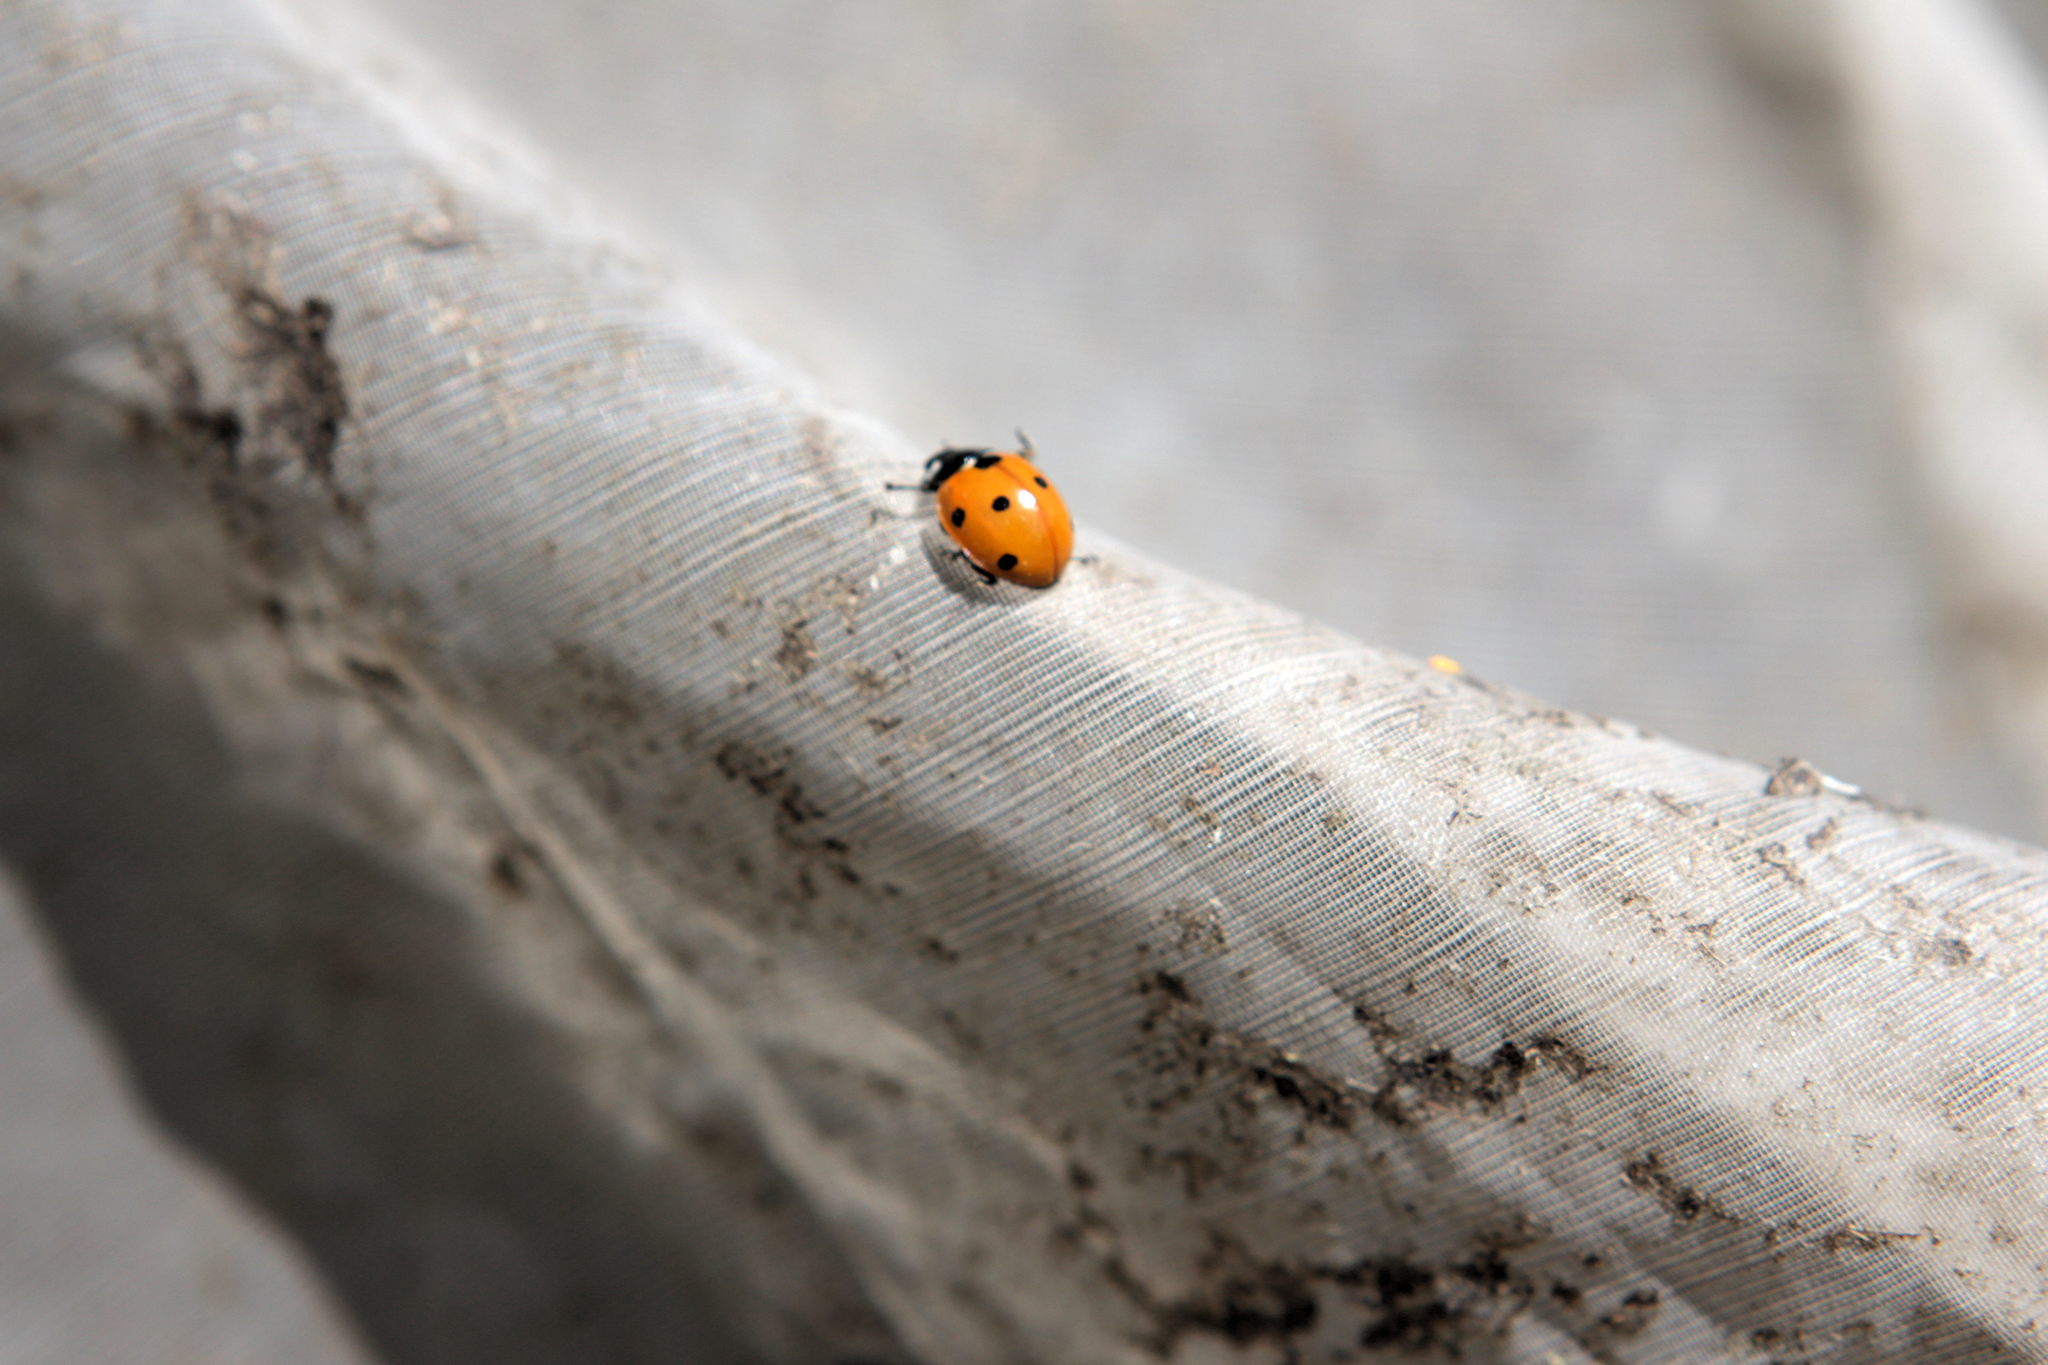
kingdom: Animalia
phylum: Arthropoda
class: Insecta
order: Coleoptera
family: Coccinellidae
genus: Coccinella
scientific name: Coccinella septempunctata
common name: Sevenspotted lady beetle
